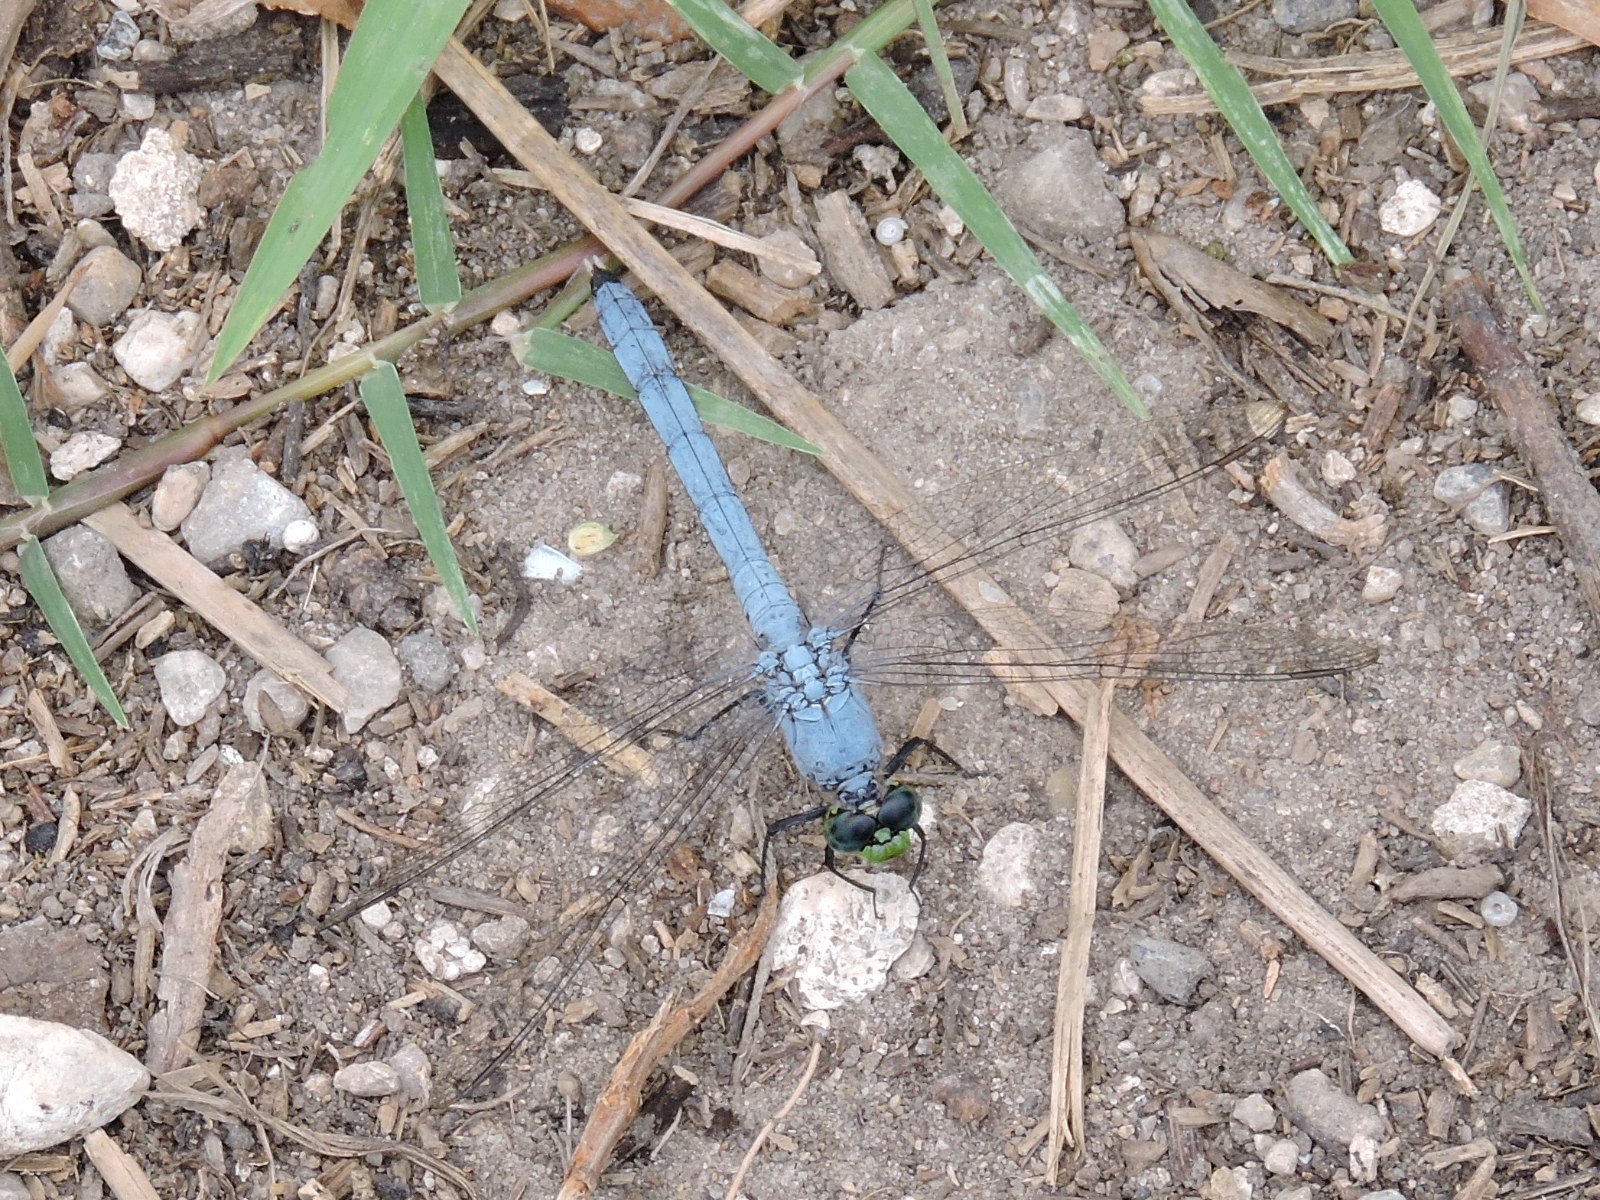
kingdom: Animalia
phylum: Arthropoda
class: Insecta
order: Odonata
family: Libellulidae
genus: Erythemis
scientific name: Erythemis simplicicollis
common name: Eastern pondhawk
